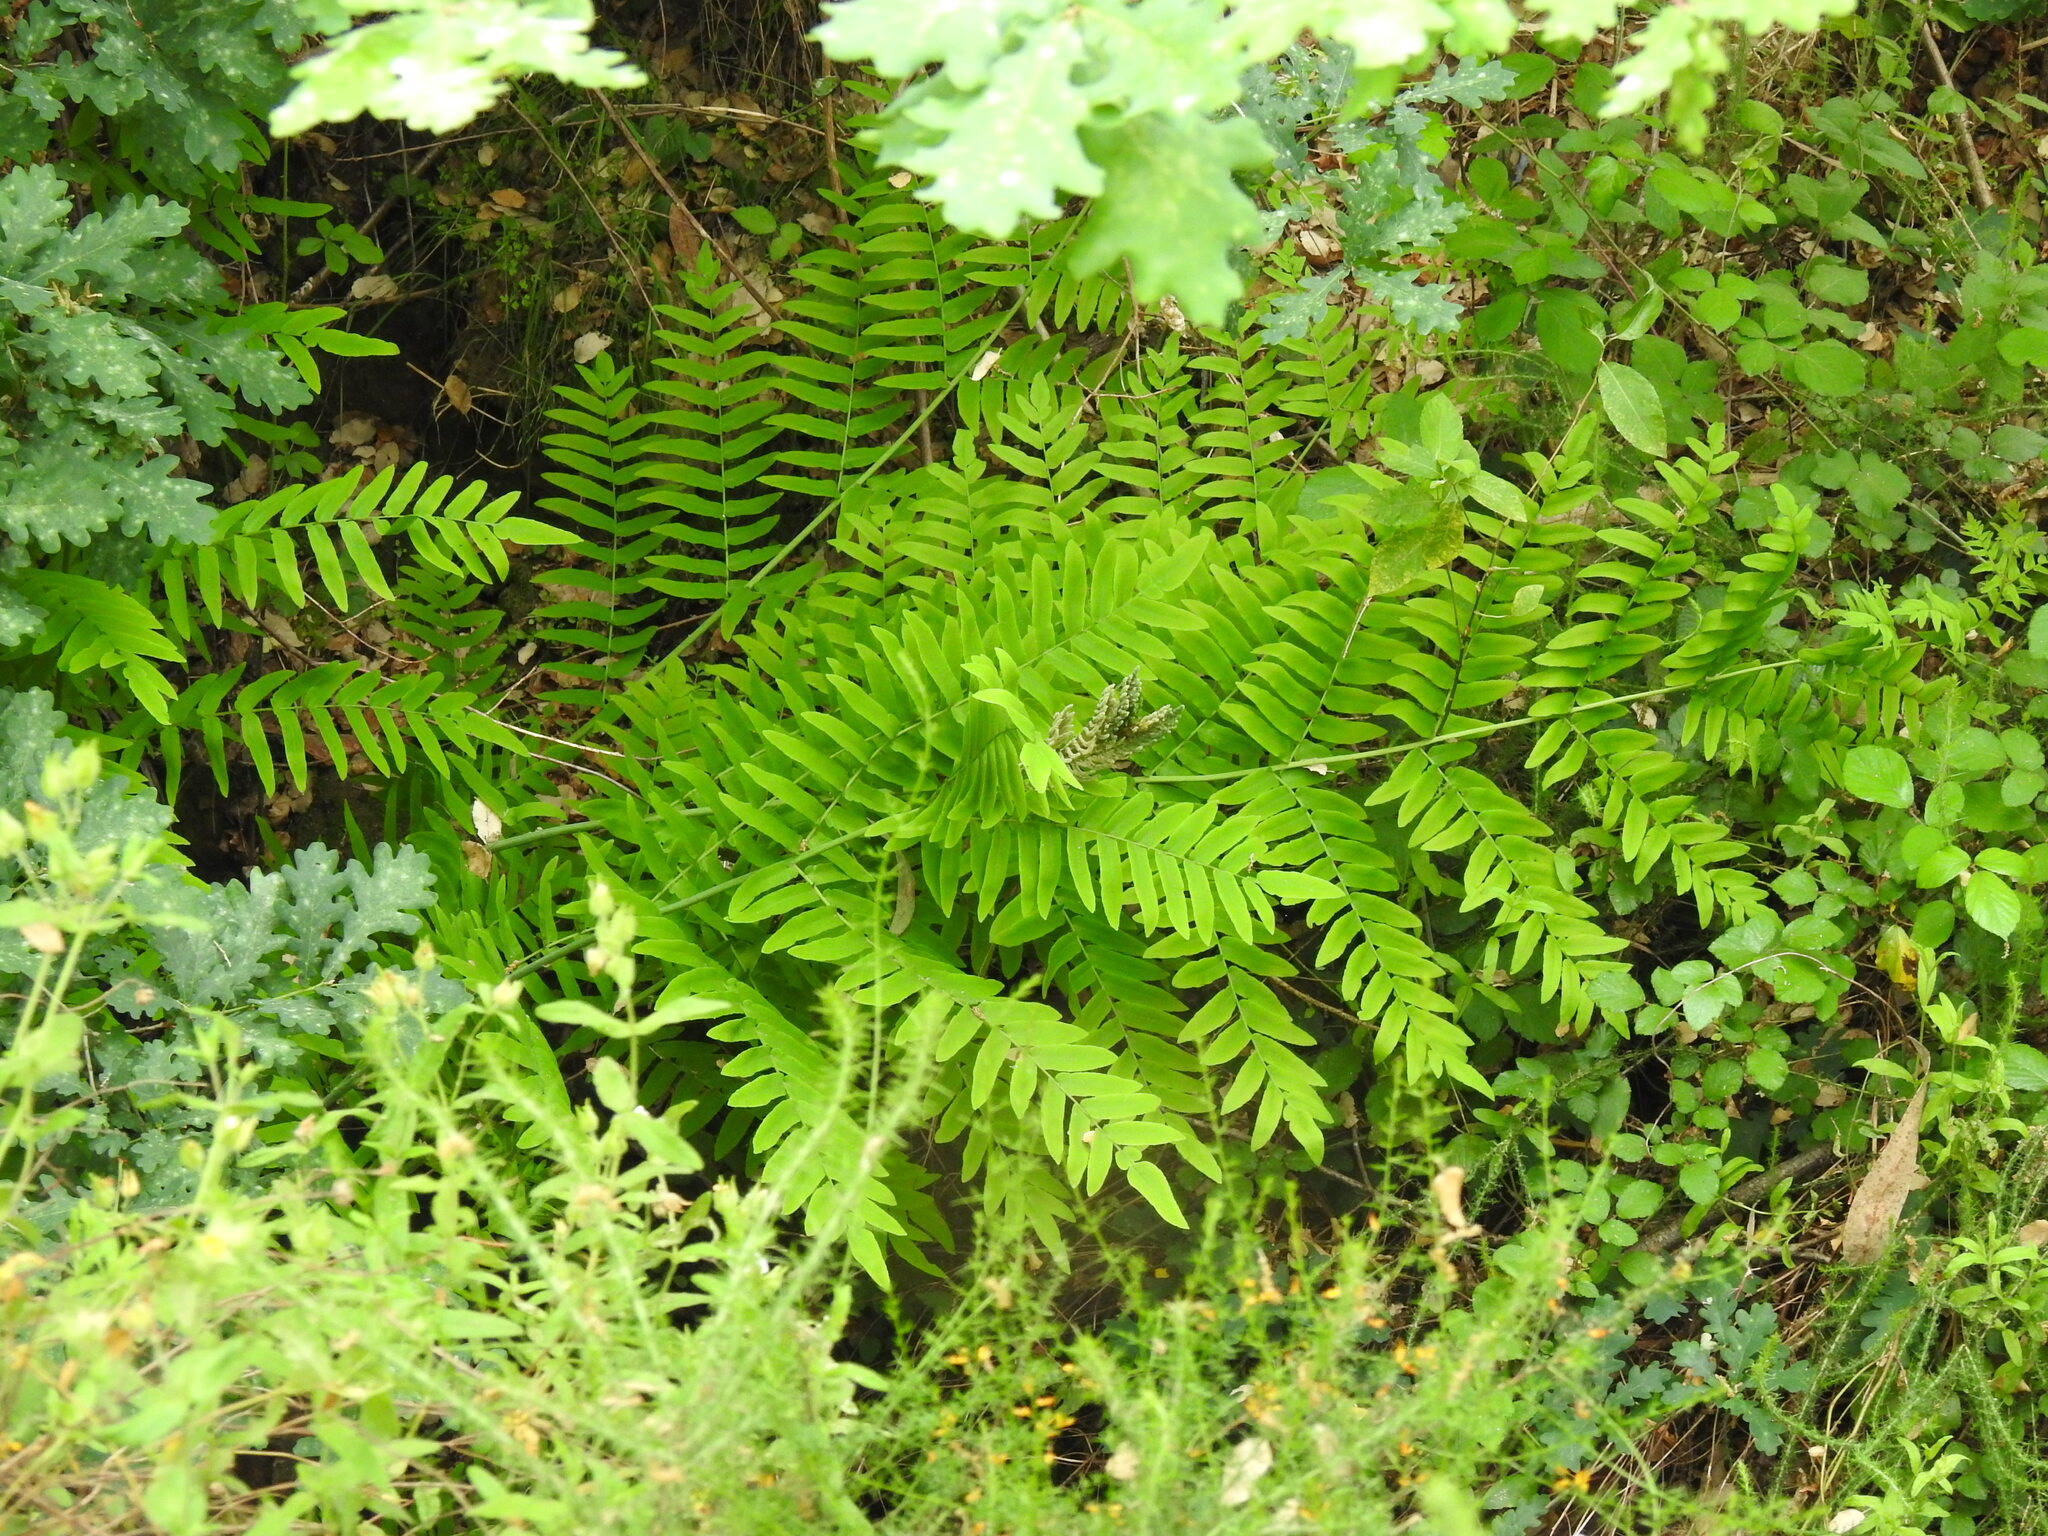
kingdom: Plantae
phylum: Tracheophyta
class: Polypodiopsida
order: Osmundales
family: Osmundaceae
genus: Osmunda
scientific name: Osmunda regalis
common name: Royal fern
